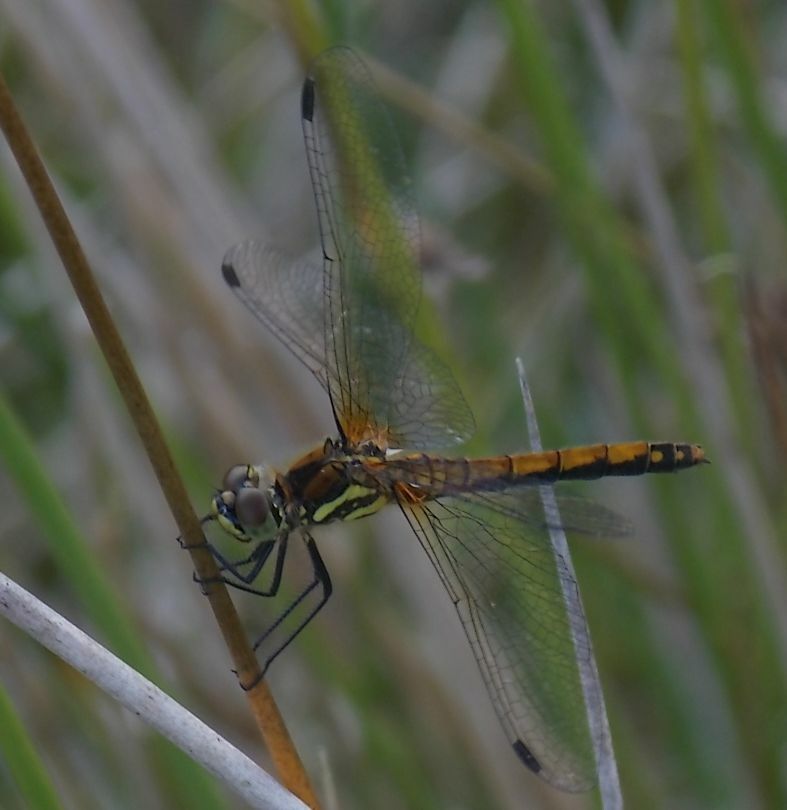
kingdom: Animalia
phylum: Arthropoda
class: Insecta
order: Odonata
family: Libellulidae
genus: Sympetrum
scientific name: Sympetrum danae
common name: Black darter
